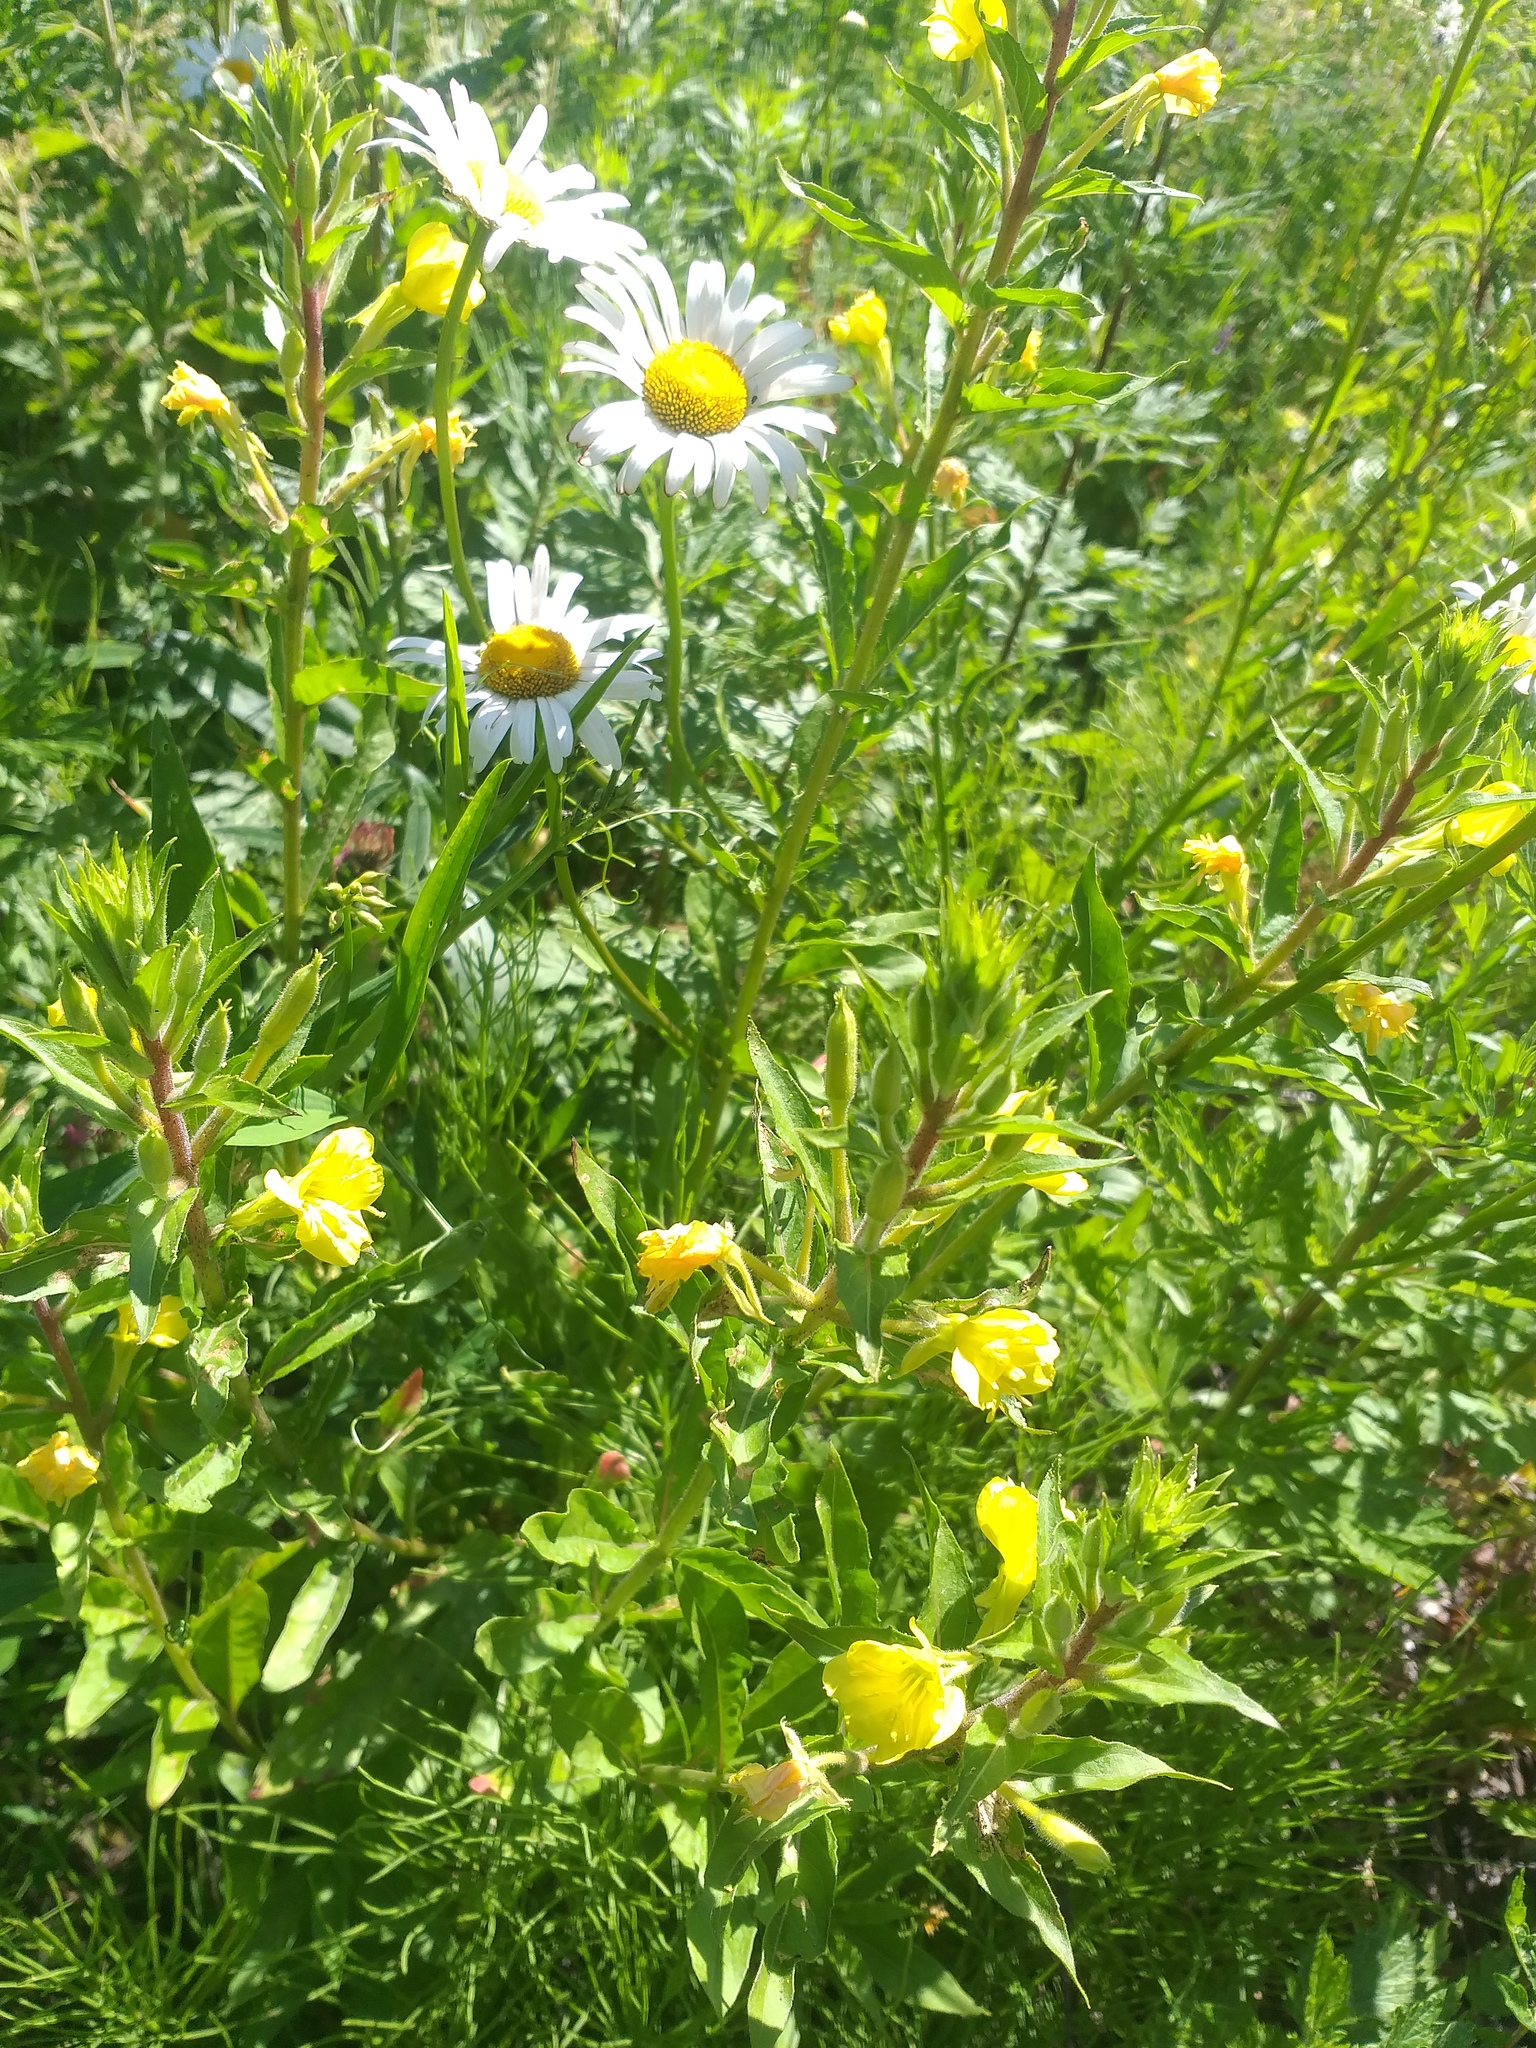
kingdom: Plantae
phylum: Tracheophyta
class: Magnoliopsida
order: Myrtales
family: Onagraceae
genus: Oenothera
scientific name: Oenothera rubricaulis
